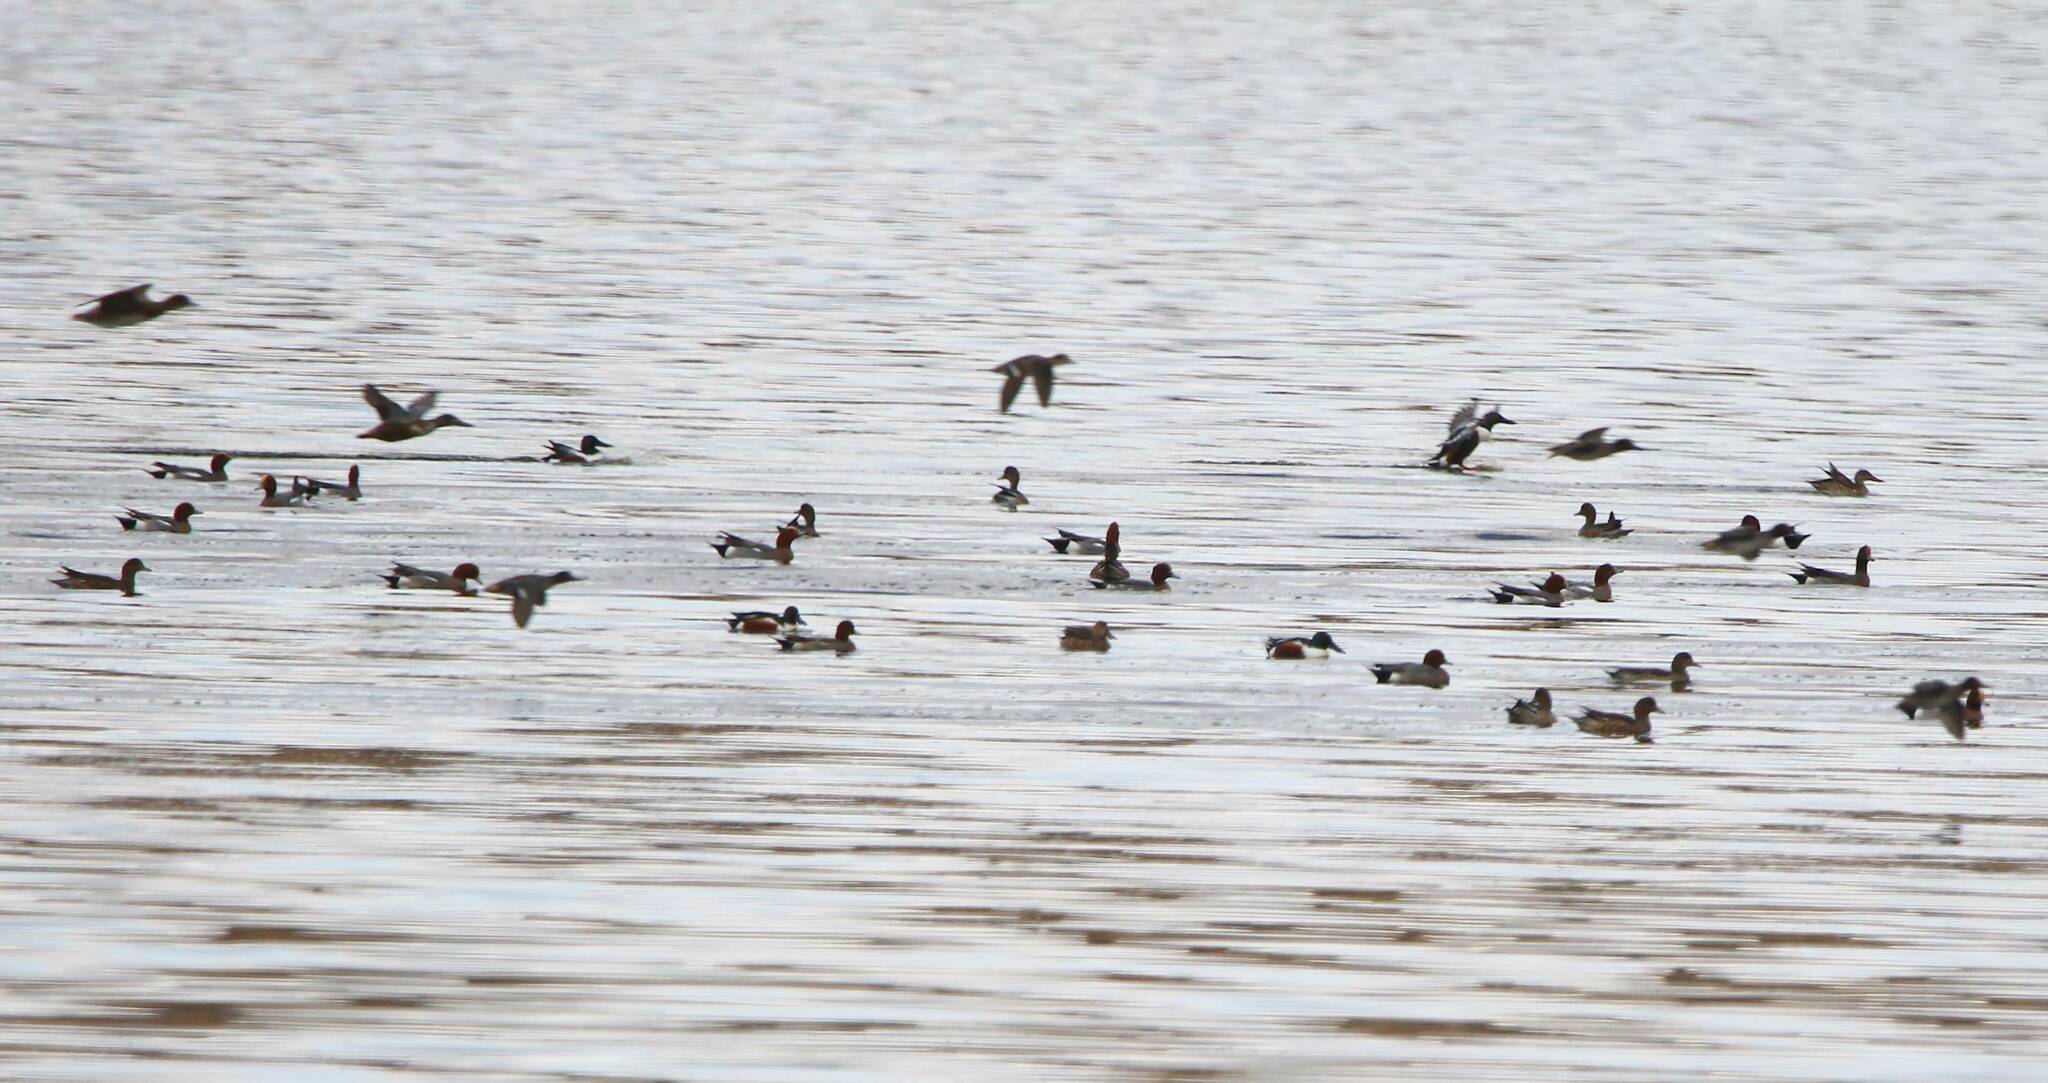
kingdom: Animalia
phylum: Chordata
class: Aves
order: Anseriformes
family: Anatidae
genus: Mareca
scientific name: Mareca penelope
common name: Eurasian wigeon
